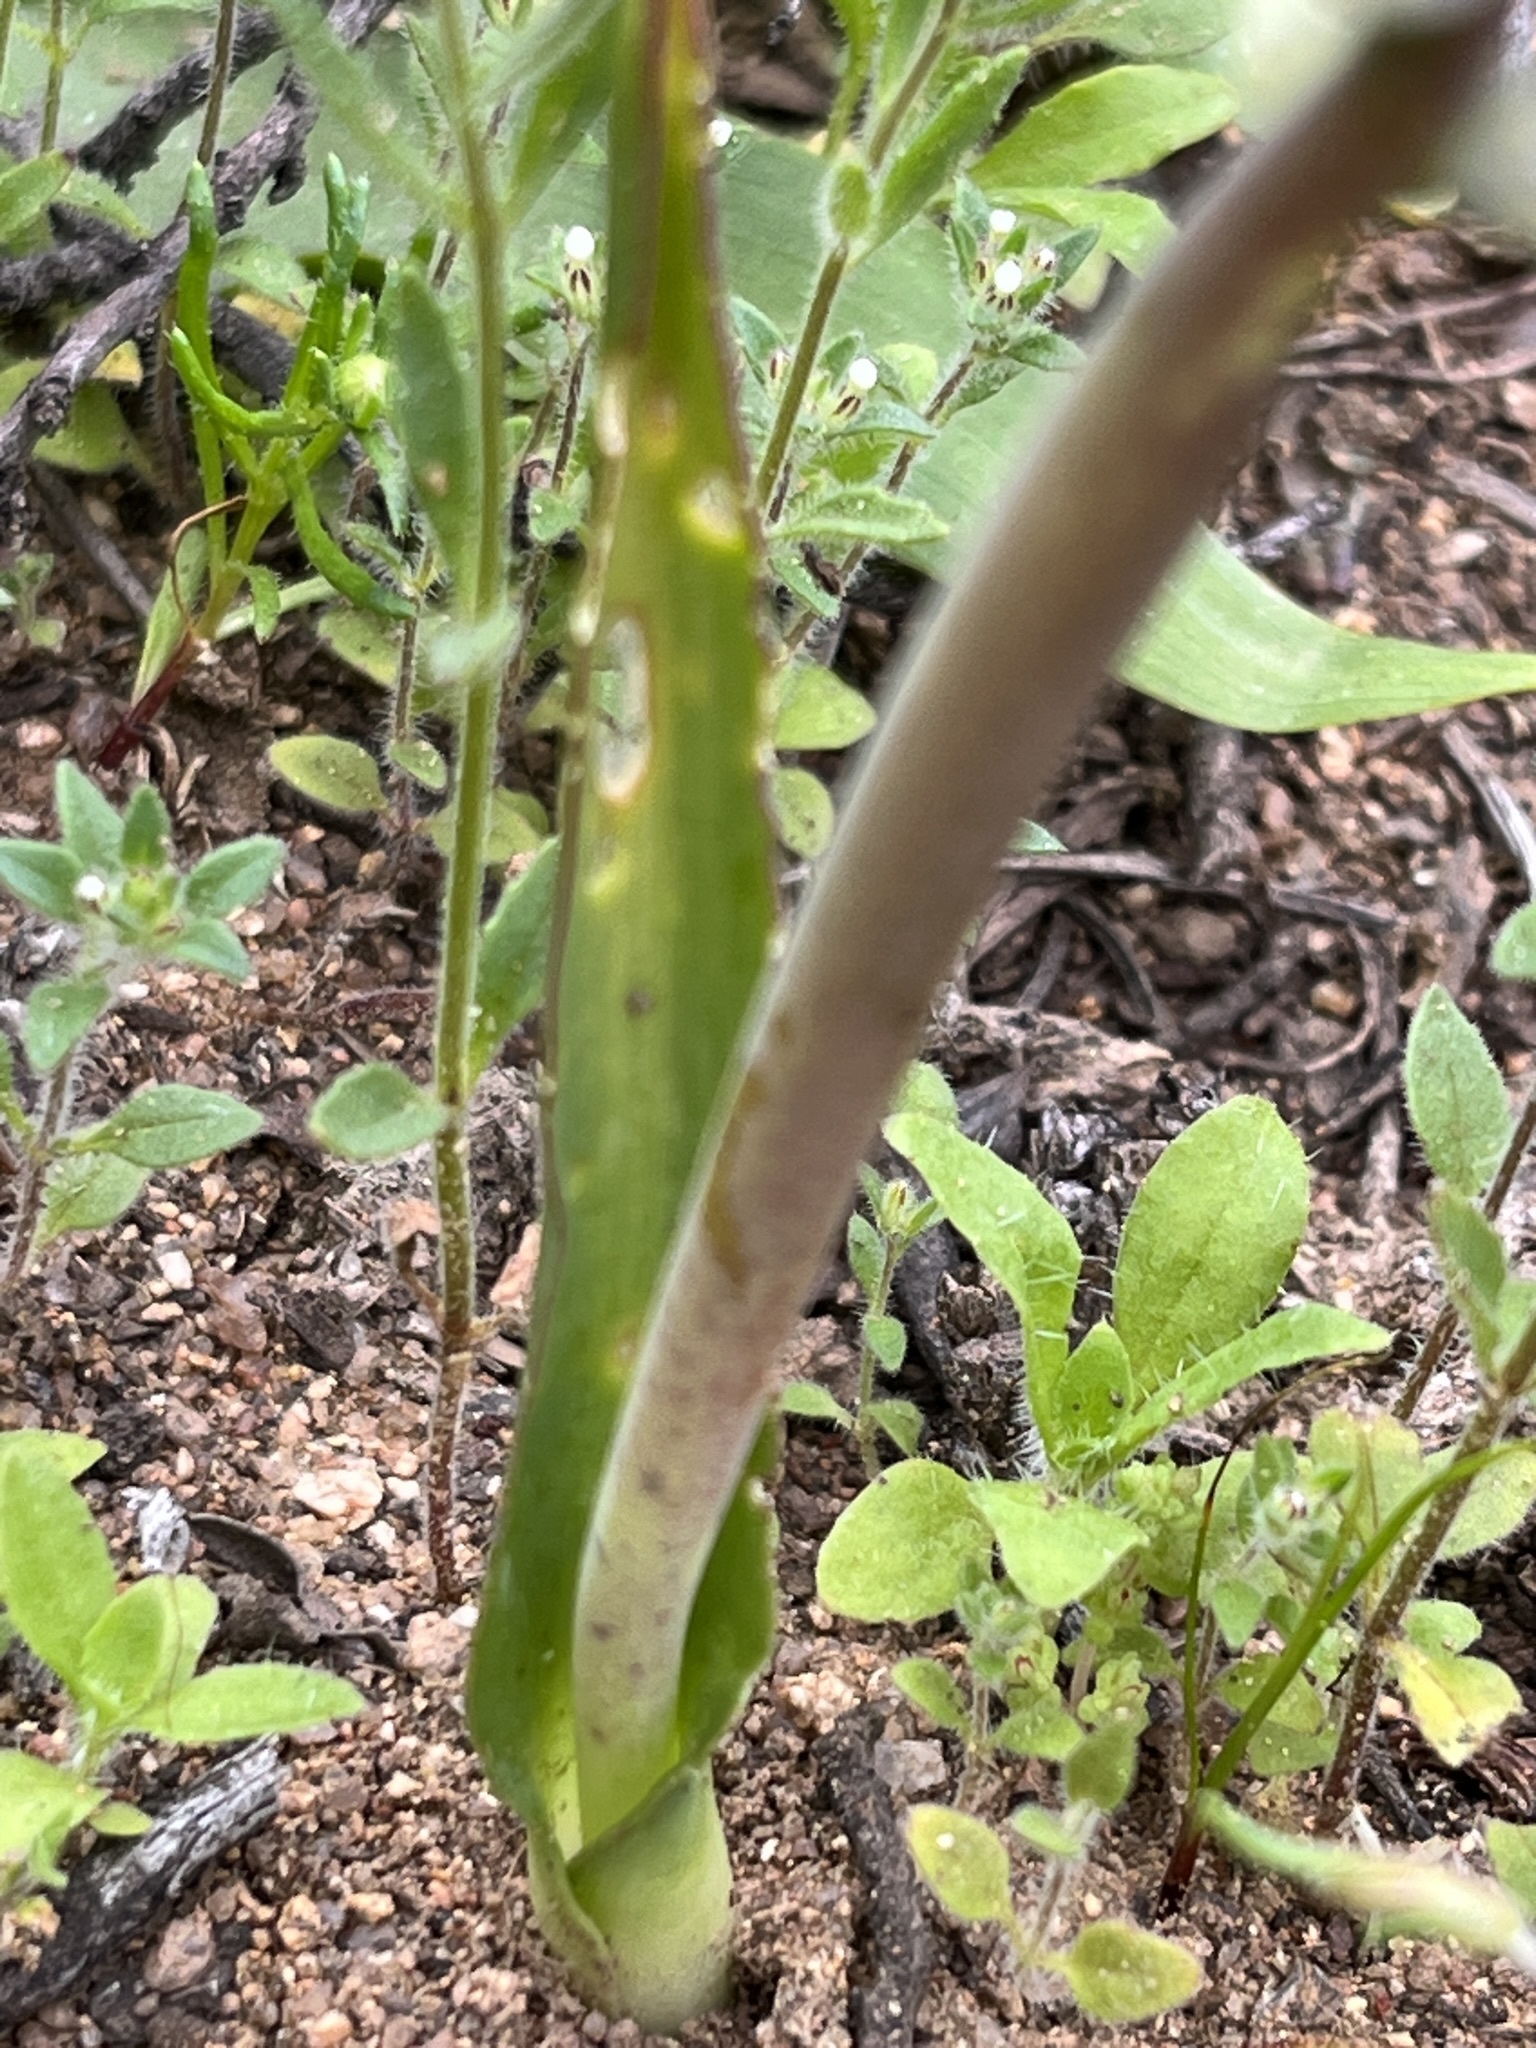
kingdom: Plantae
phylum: Tracheophyta
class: Liliopsida
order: Asparagales
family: Asparagaceae
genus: Lachenalia
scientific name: Lachenalia membranacea
